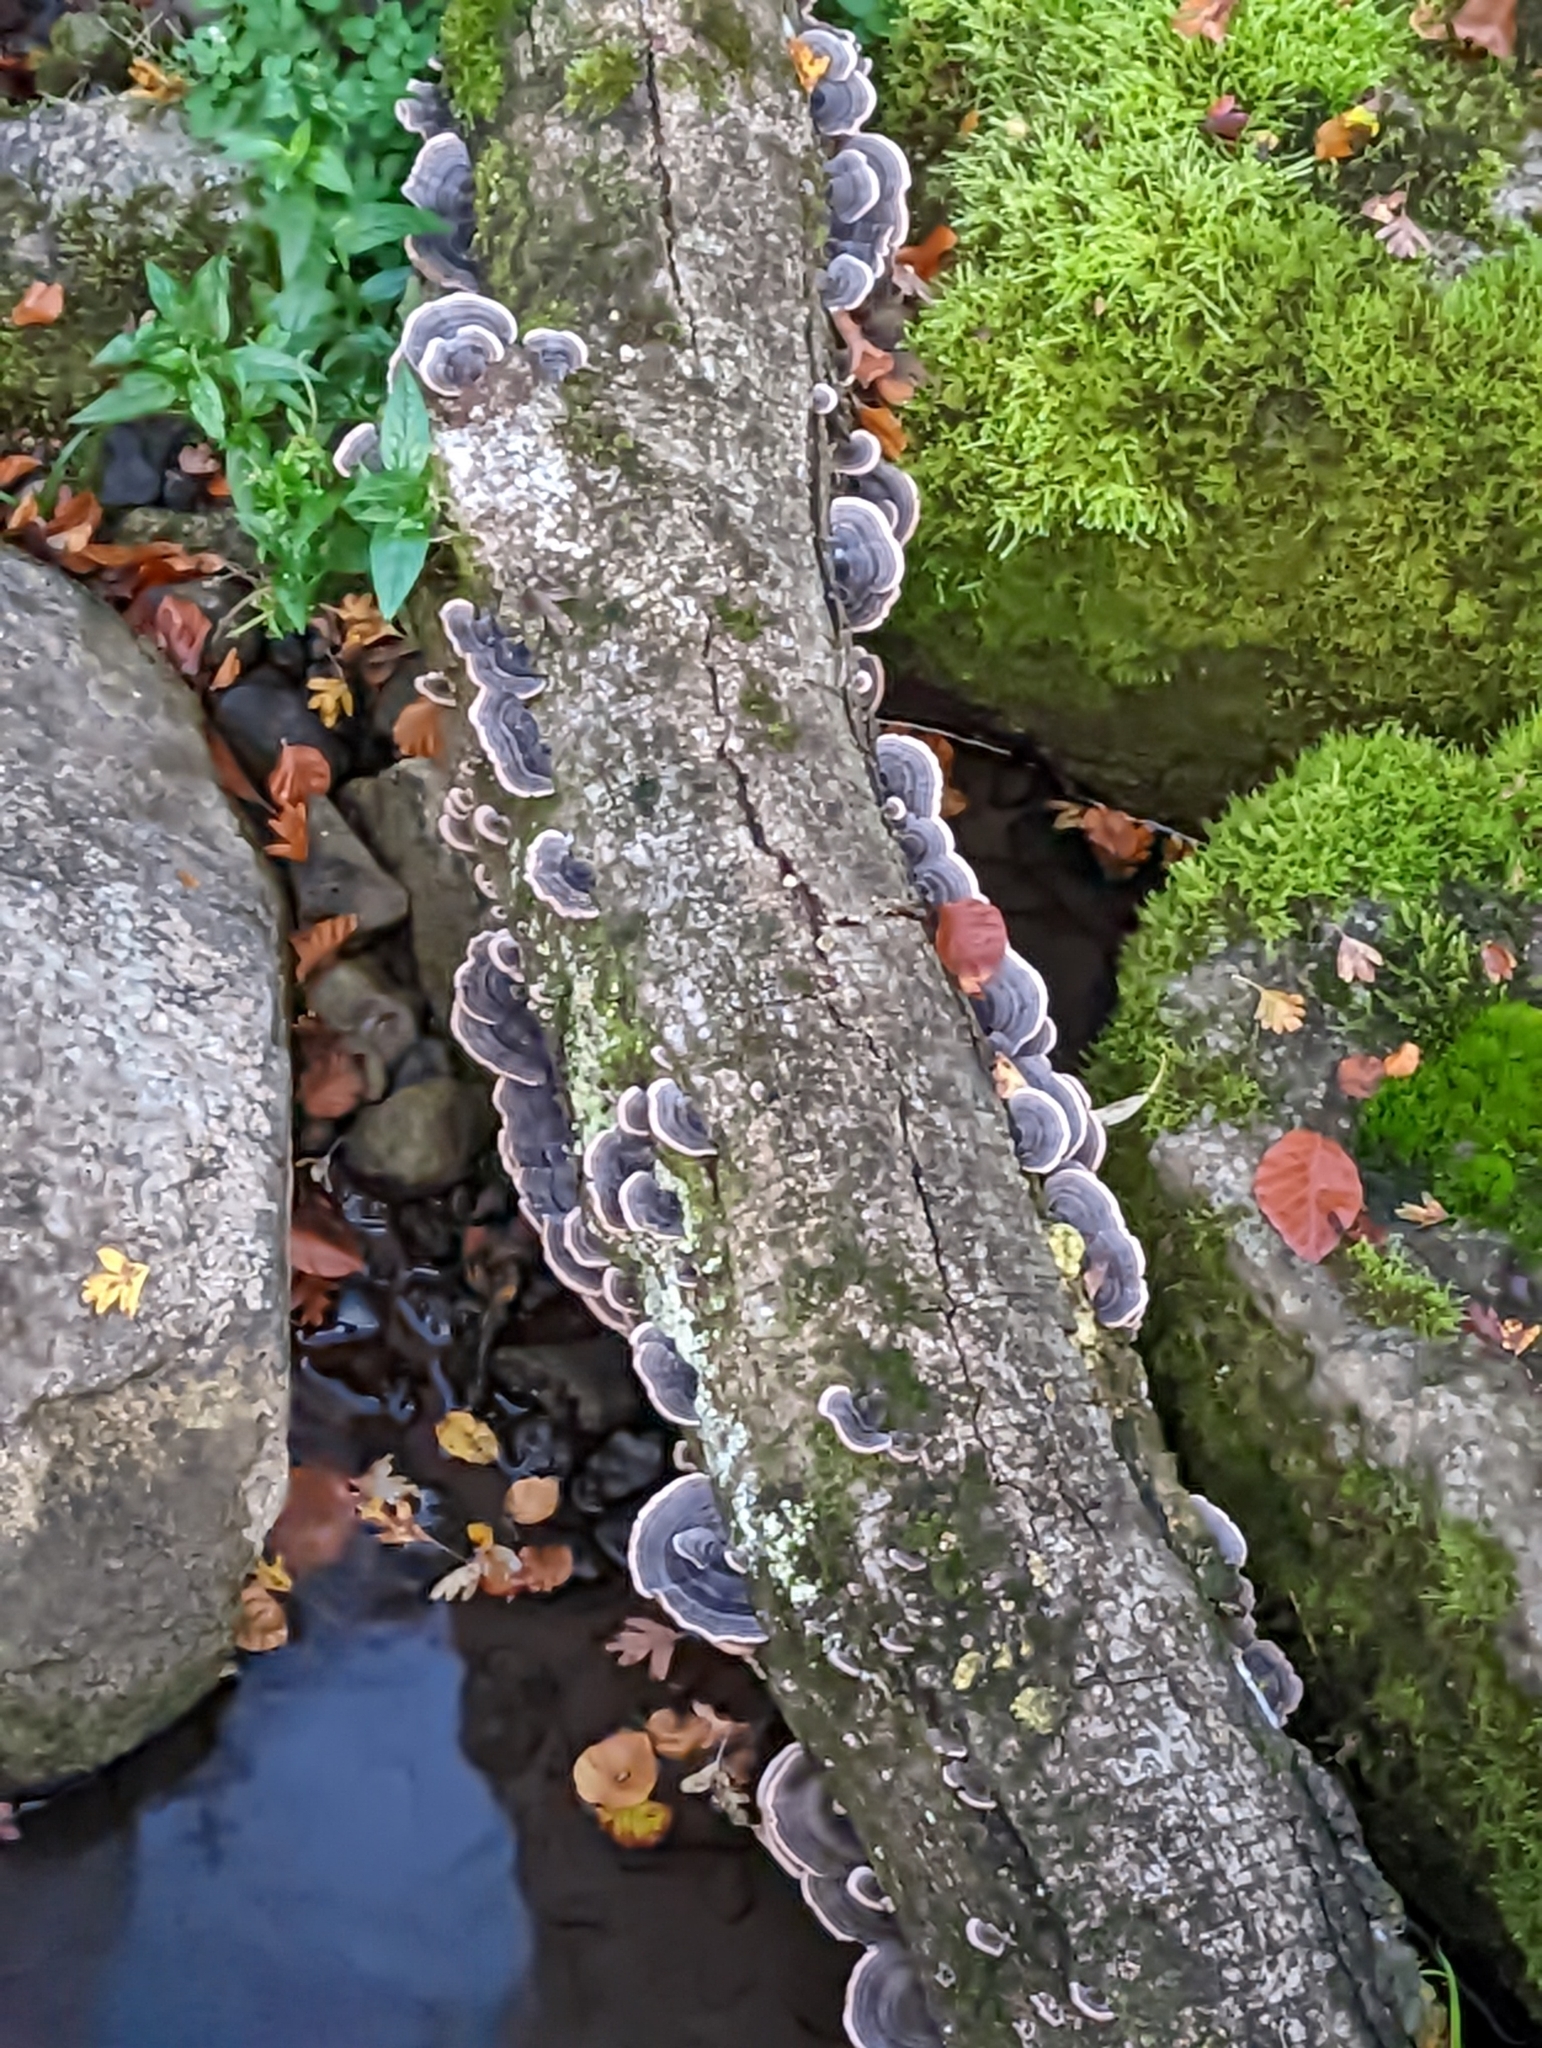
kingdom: Fungi
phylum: Basidiomycota
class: Agaricomycetes
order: Polyporales
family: Polyporaceae
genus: Trametes
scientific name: Trametes versicolor
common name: Turkeytail
